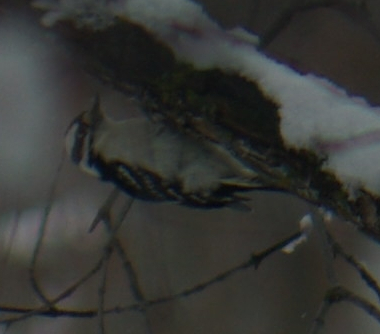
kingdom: Animalia
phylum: Chordata
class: Aves
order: Piciformes
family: Picidae
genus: Dryobates
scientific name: Dryobates pubescens
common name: Downy woodpecker
